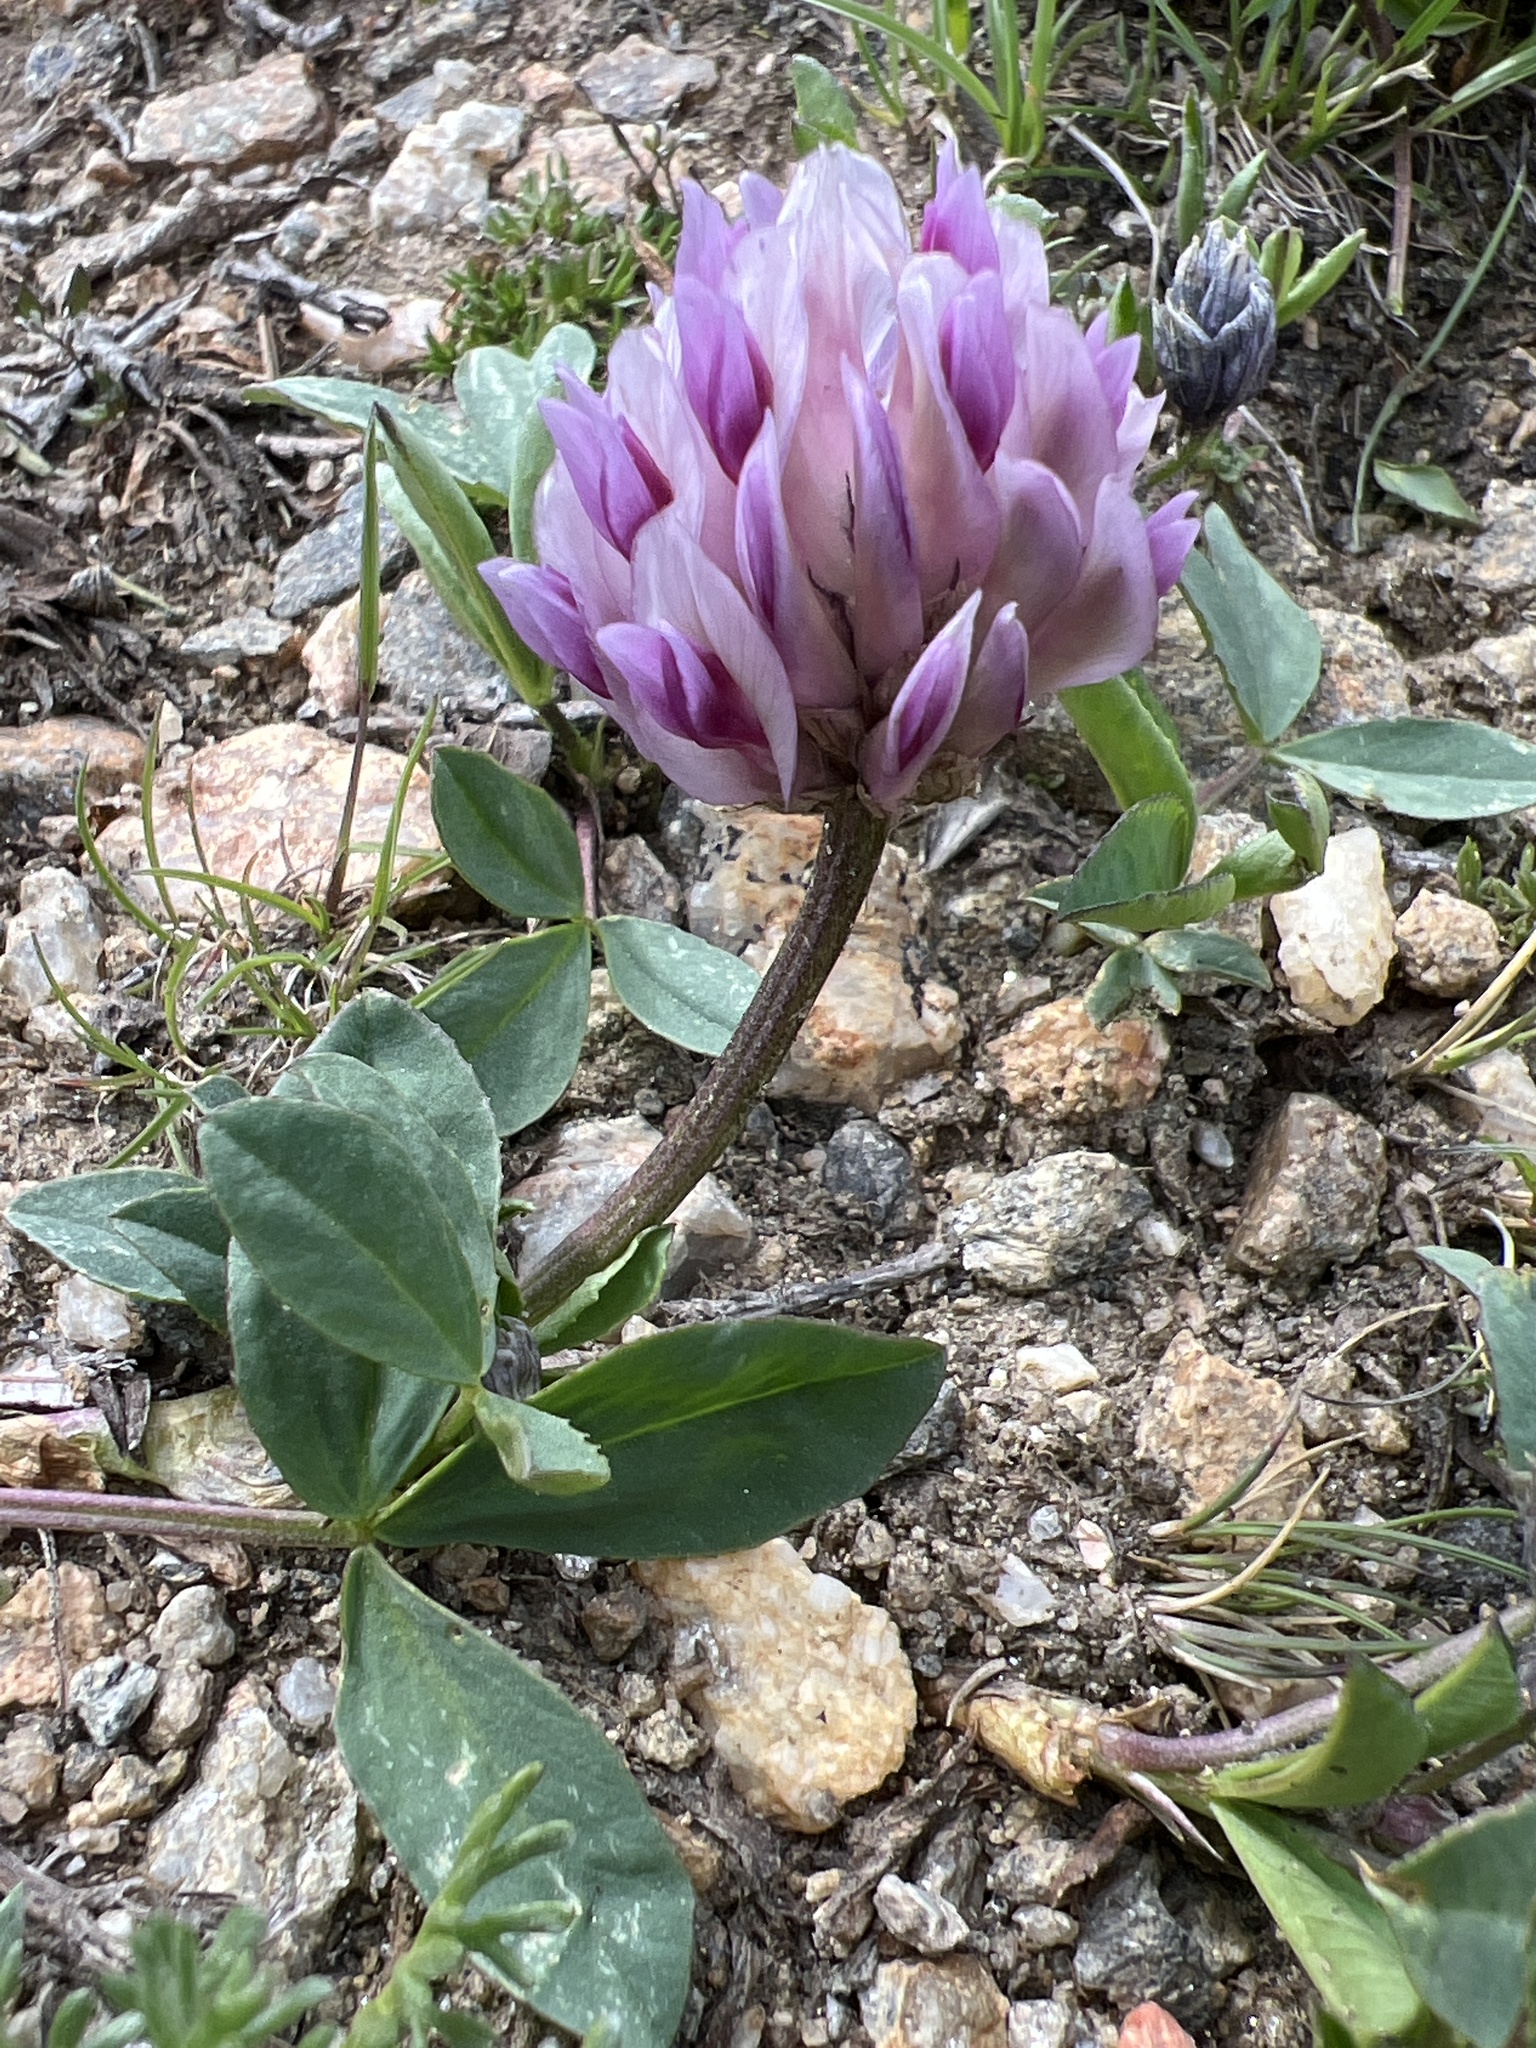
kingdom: Plantae
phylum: Tracheophyta
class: Magnoliopsida
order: Fabales
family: Fabaceae
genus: Trifolium
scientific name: Trifolium parryi
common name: Parry's clover
